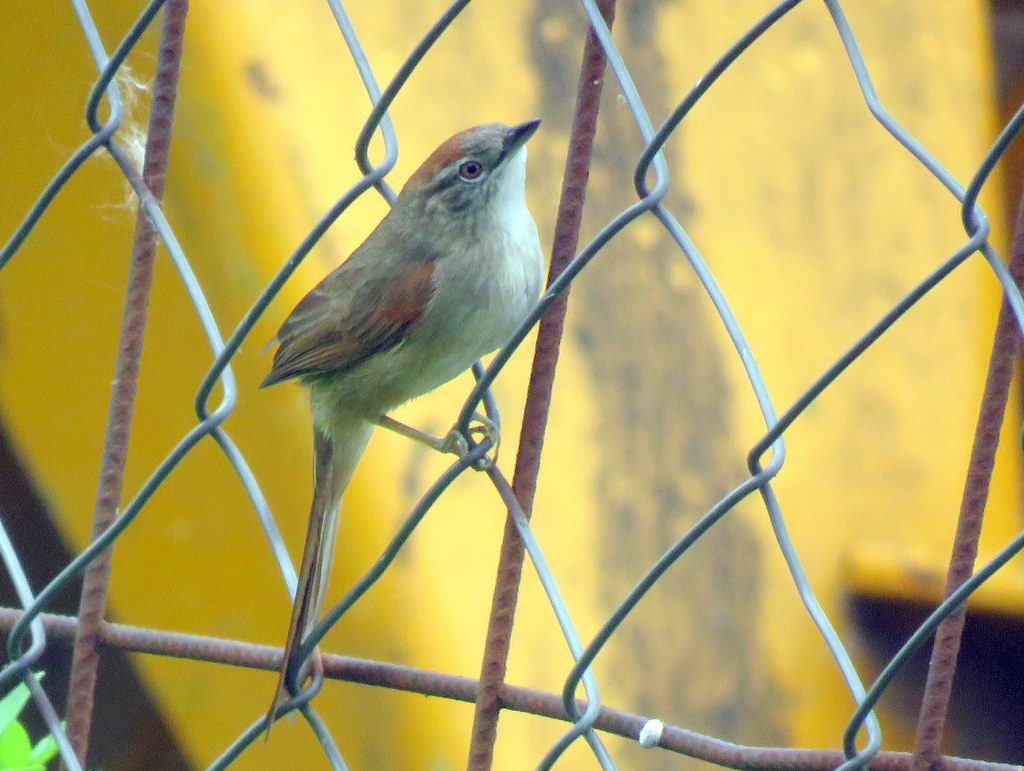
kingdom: Animalia
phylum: Chordata
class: Aves
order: Passeriformes
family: Furnariidae
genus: Synallaxis
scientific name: Synallaxis albescens
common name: Pale-breasted spinetail
